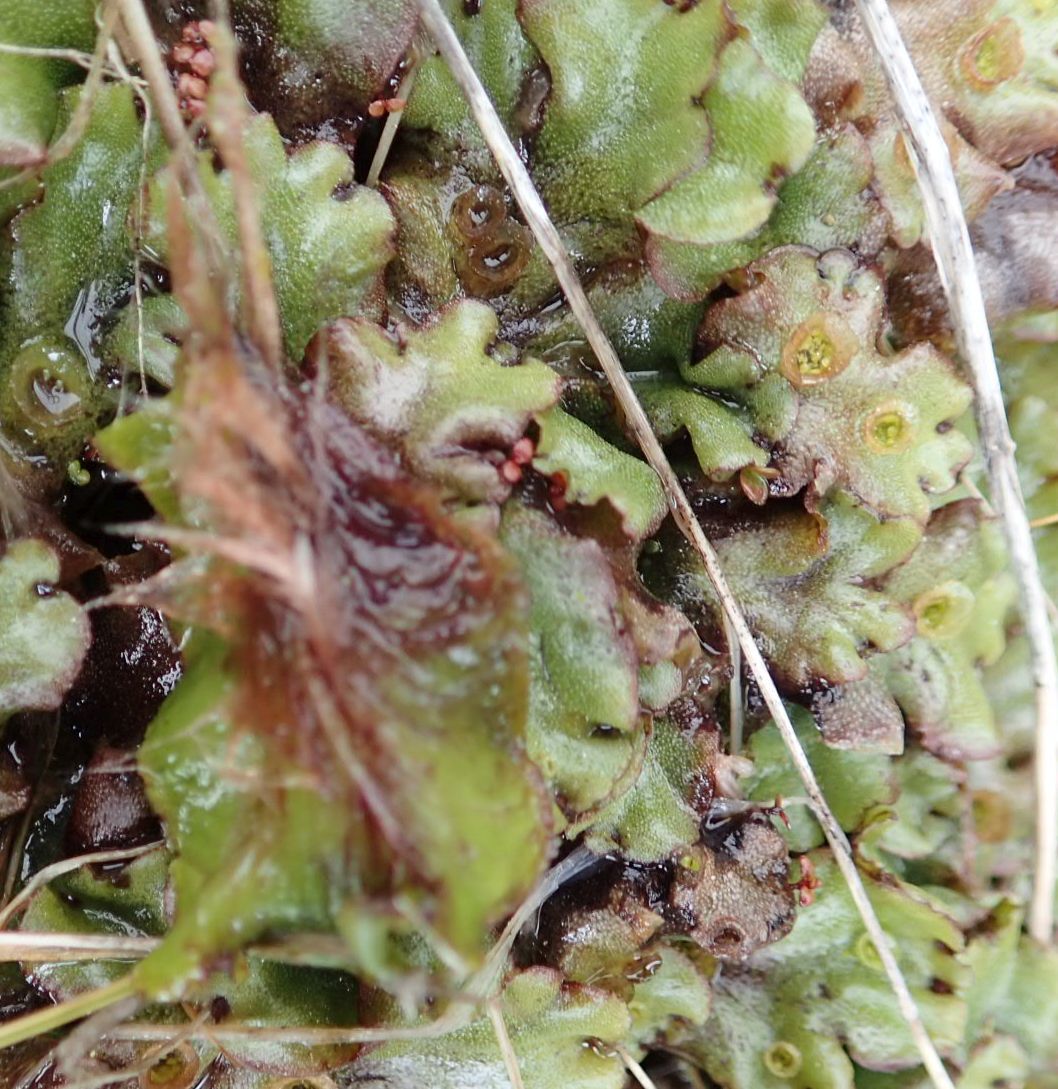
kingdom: Plantae
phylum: Marchantiophyta
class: Marchantiopsida
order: Marchantiales
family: Marchantiaceae
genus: Marchantia
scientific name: Marchantia berteroana
